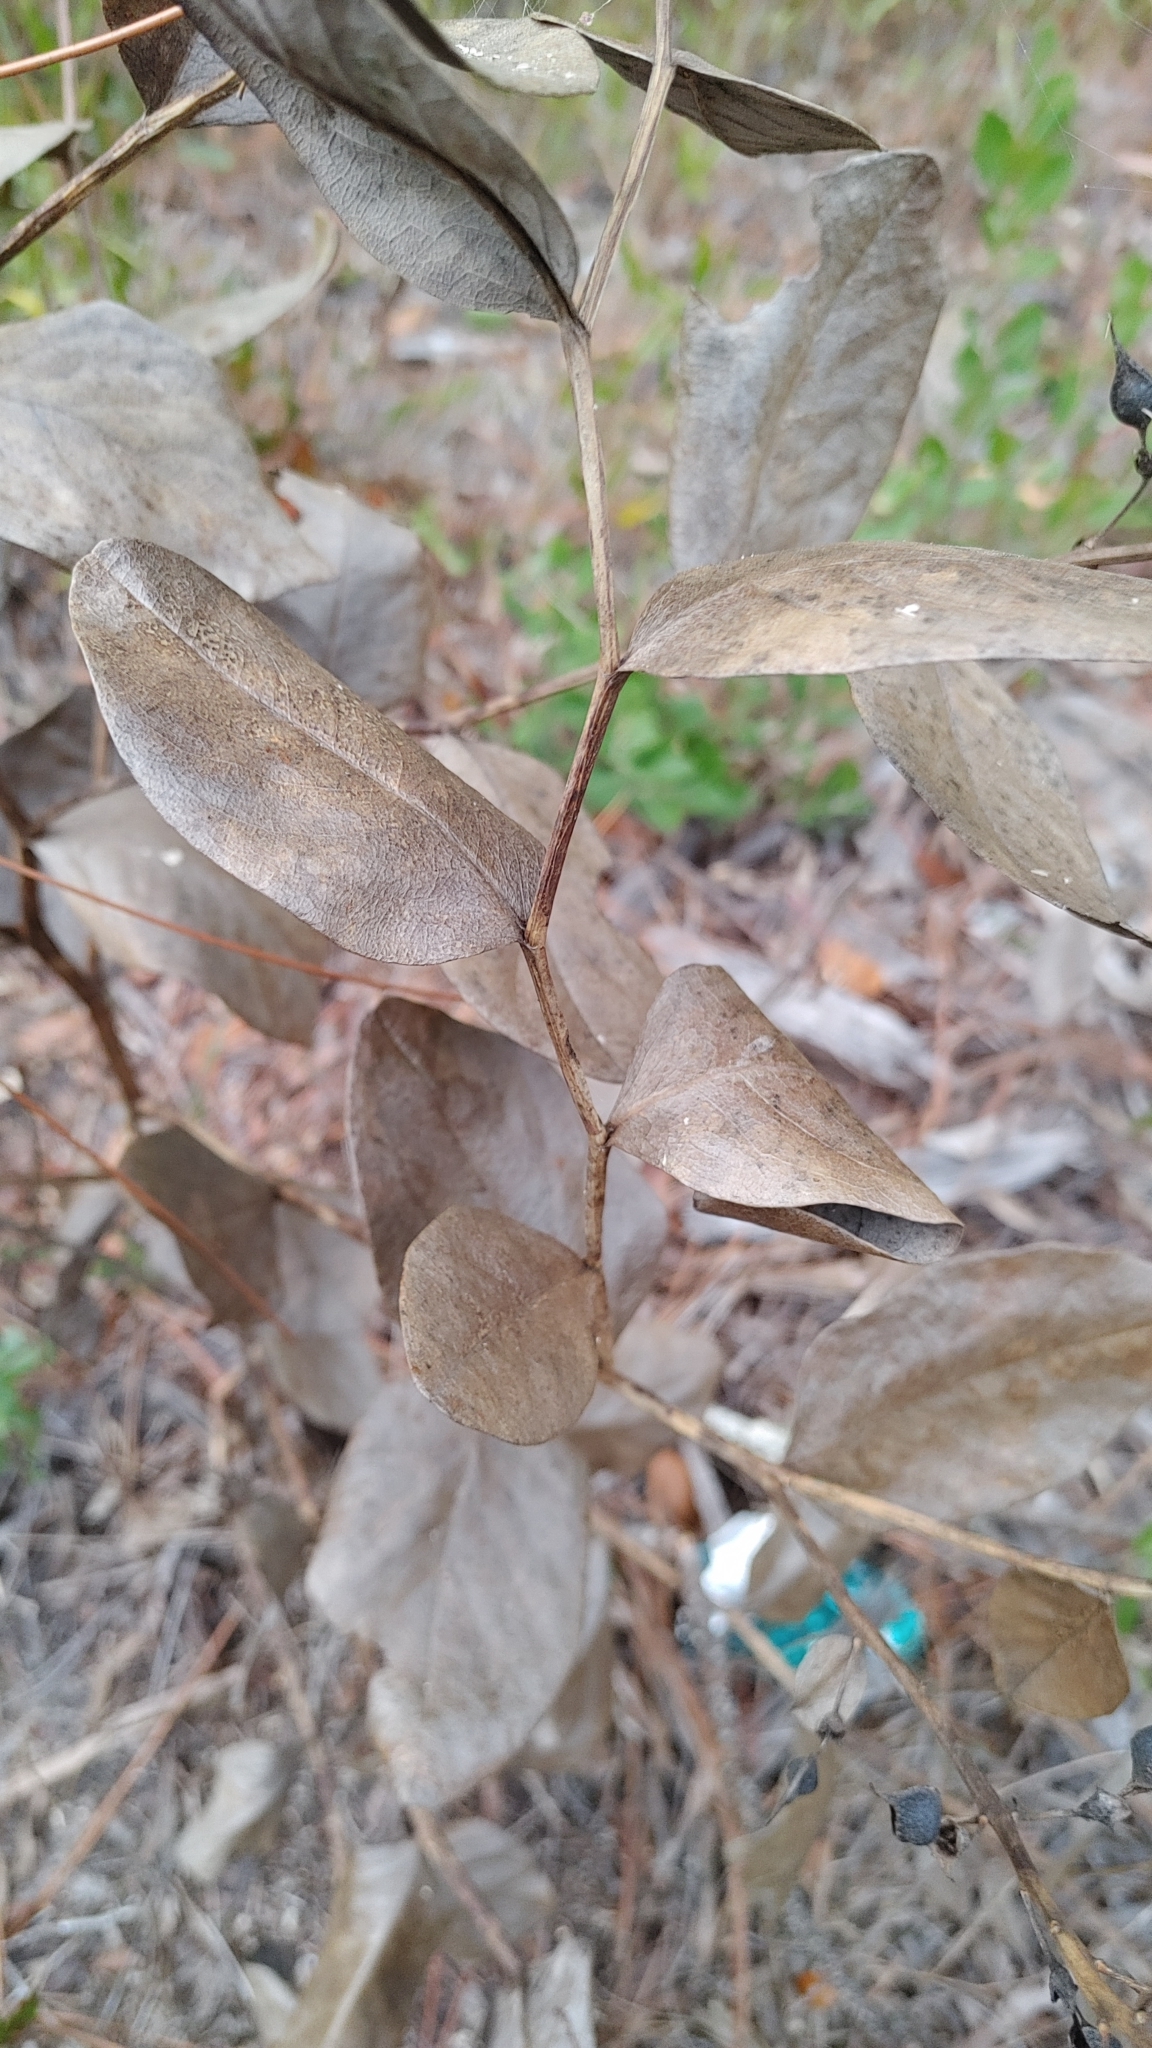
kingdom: Plantae
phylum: Tracheophyta
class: Magnoliopsida
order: Fabales
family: Fabaceae
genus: Baptisia
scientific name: Baptisia simplicifolia
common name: Scareweed
